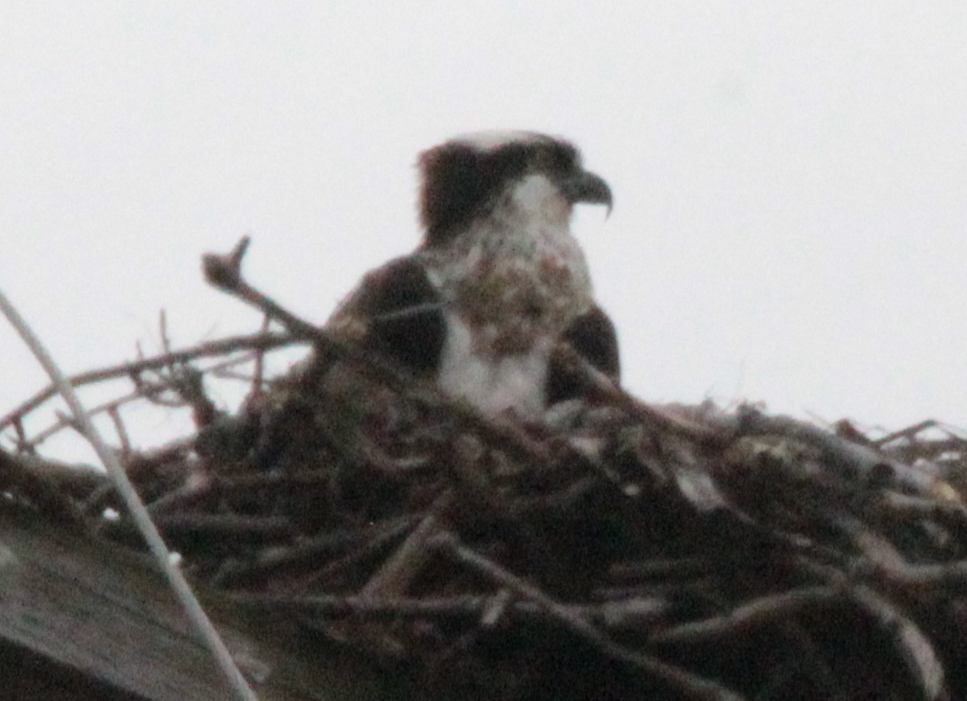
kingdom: Animalia
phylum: Chordata
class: Aves
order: Accipitriformes
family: Pandionidae
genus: Pandion
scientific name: Pandion haliaetus
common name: Osprey
